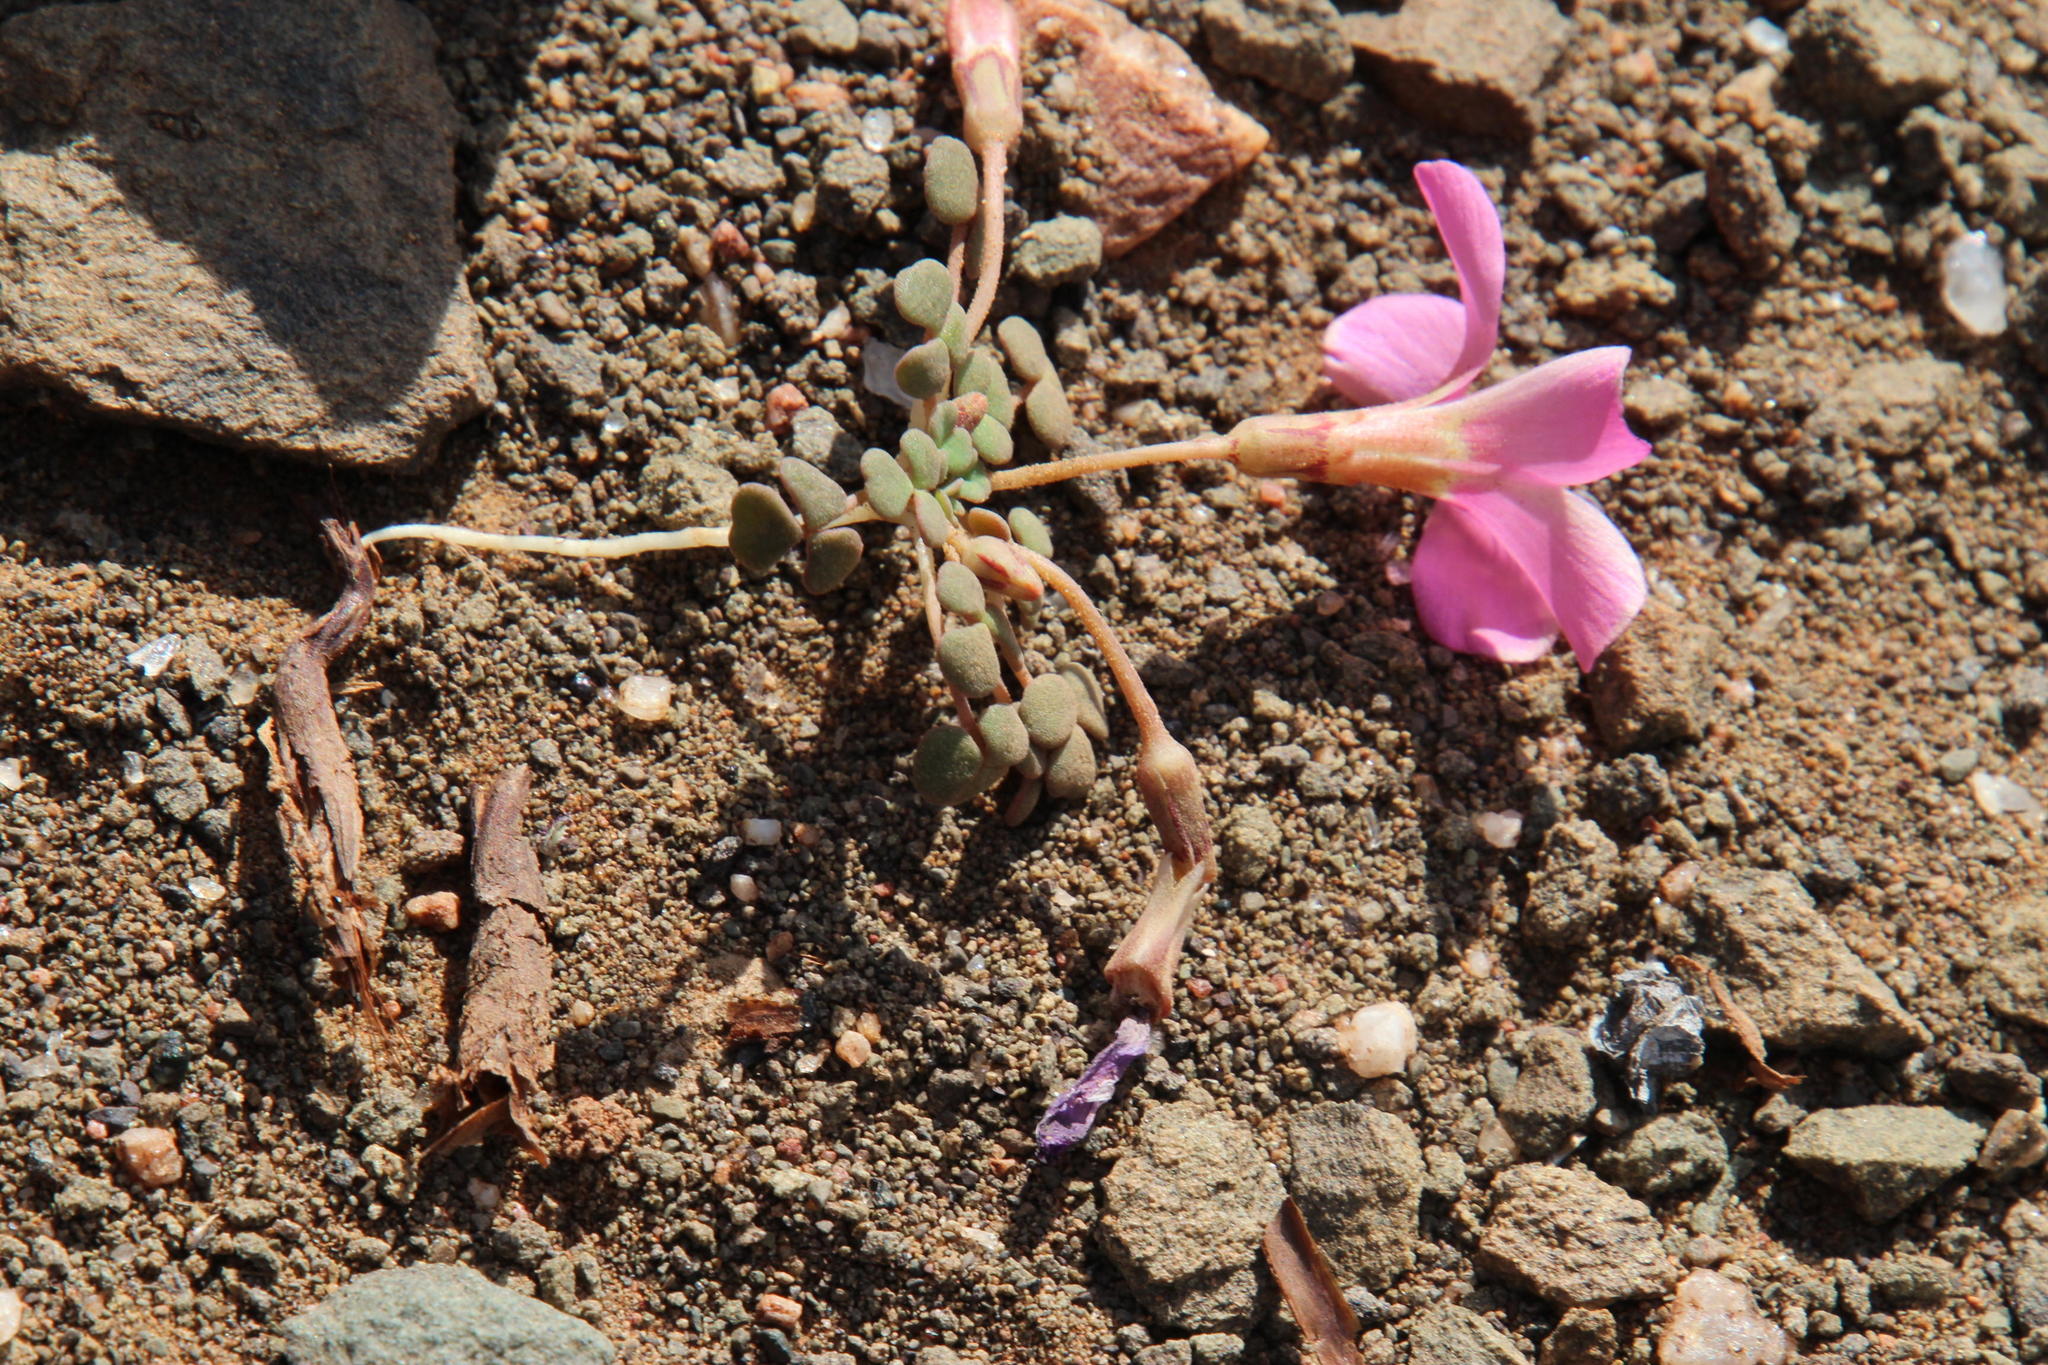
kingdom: Plantae
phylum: Tracheophyta
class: Magnoliopsida
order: Oxalidales
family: Oxalidaceae
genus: Oxalis
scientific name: Oxalis fergusoniae
